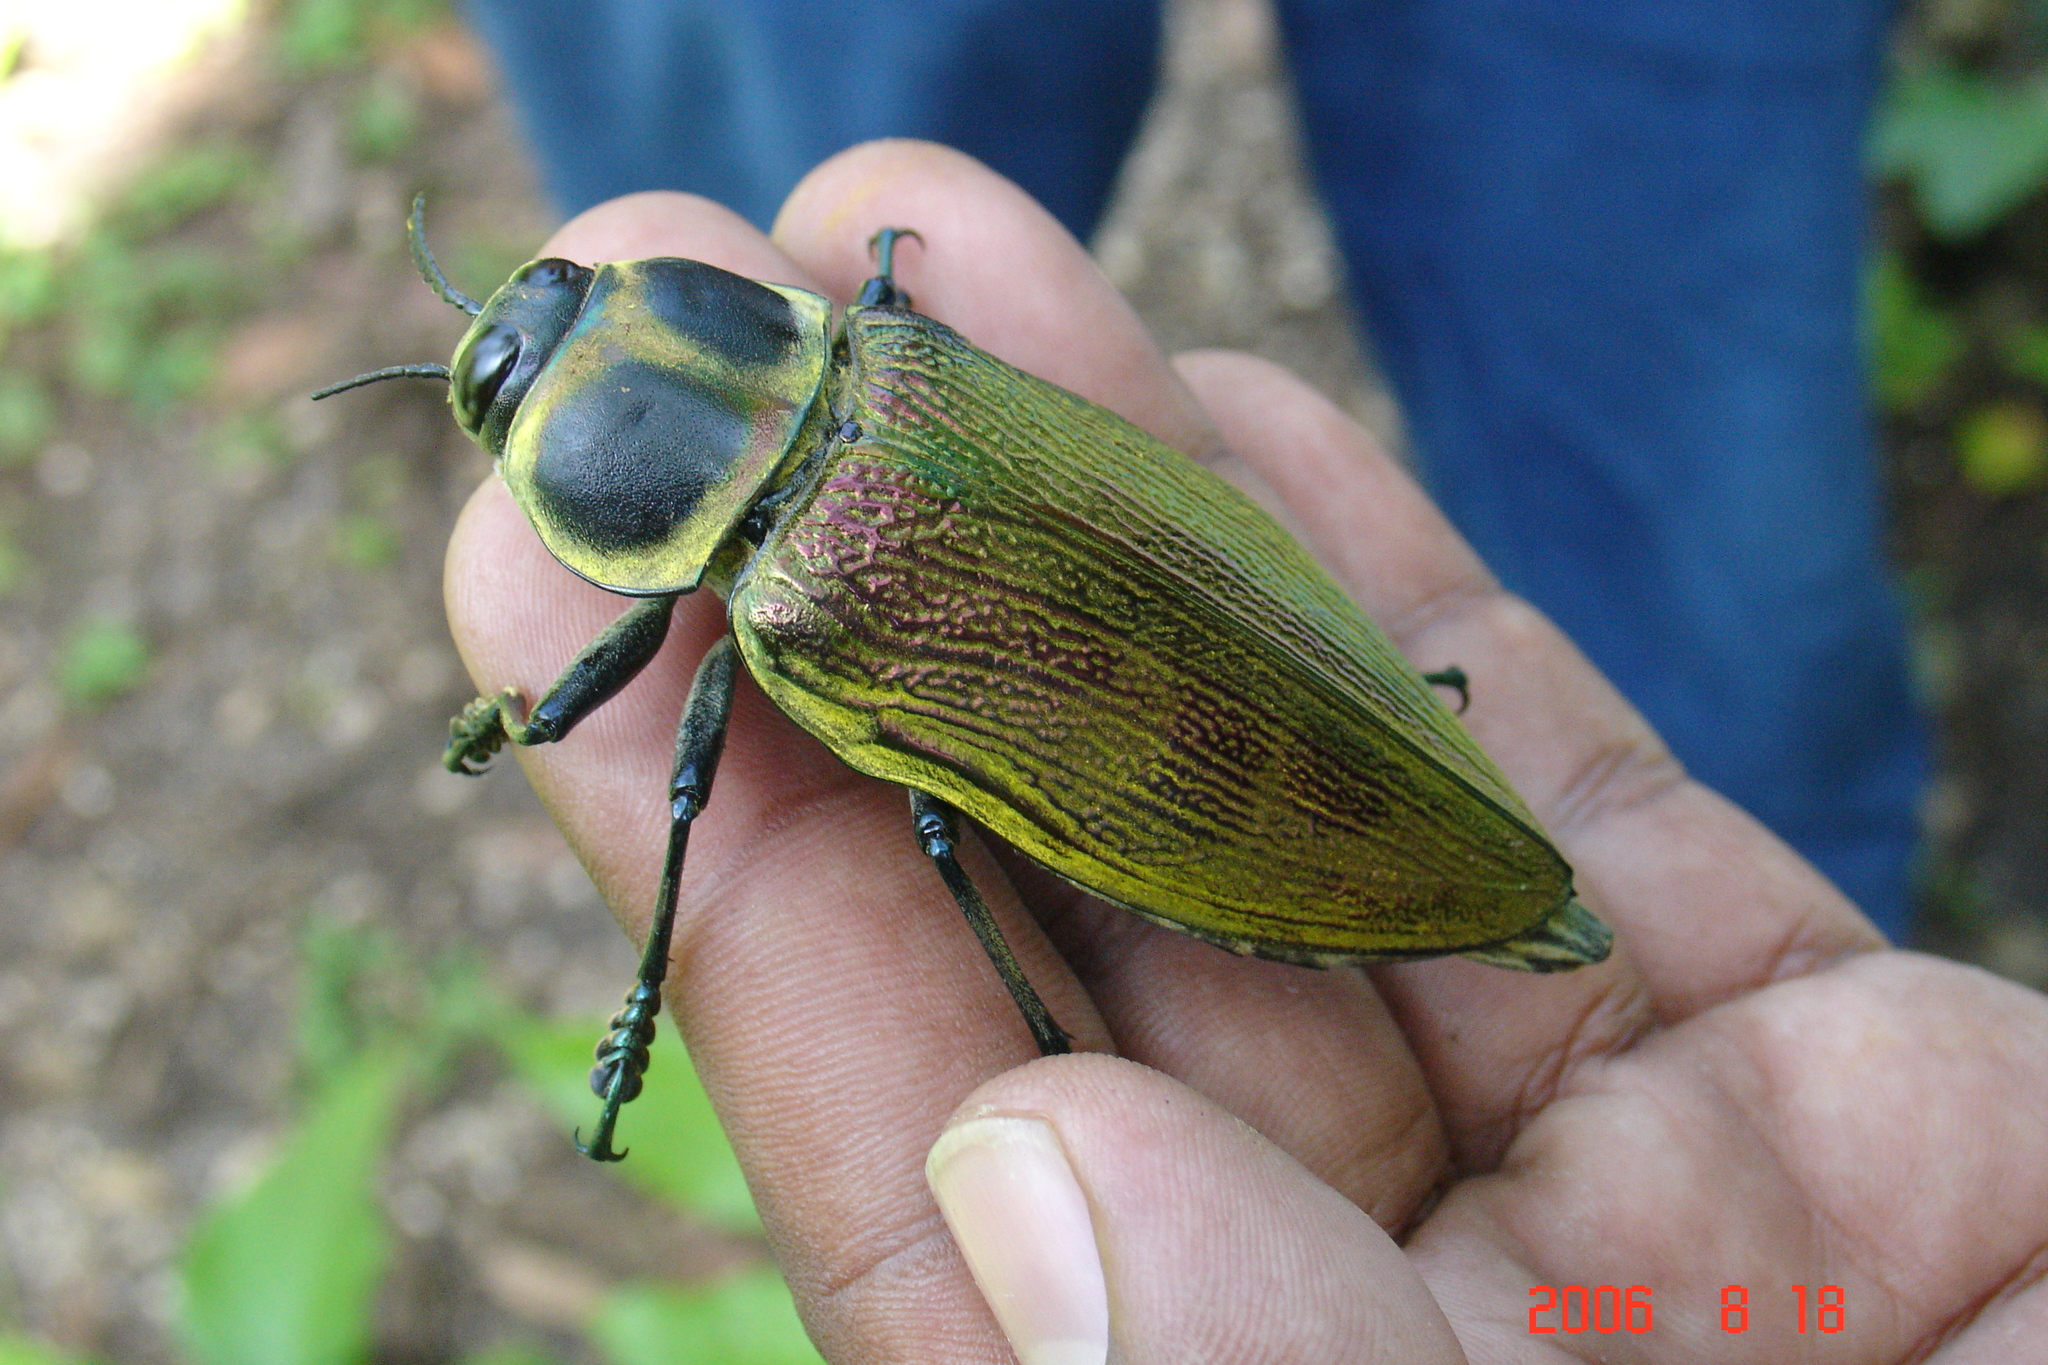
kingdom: Animalia
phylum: Arthropoda
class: Insecta
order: Coleoptera
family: Buprestidae
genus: Euchroma
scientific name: Euchroma giganteum
